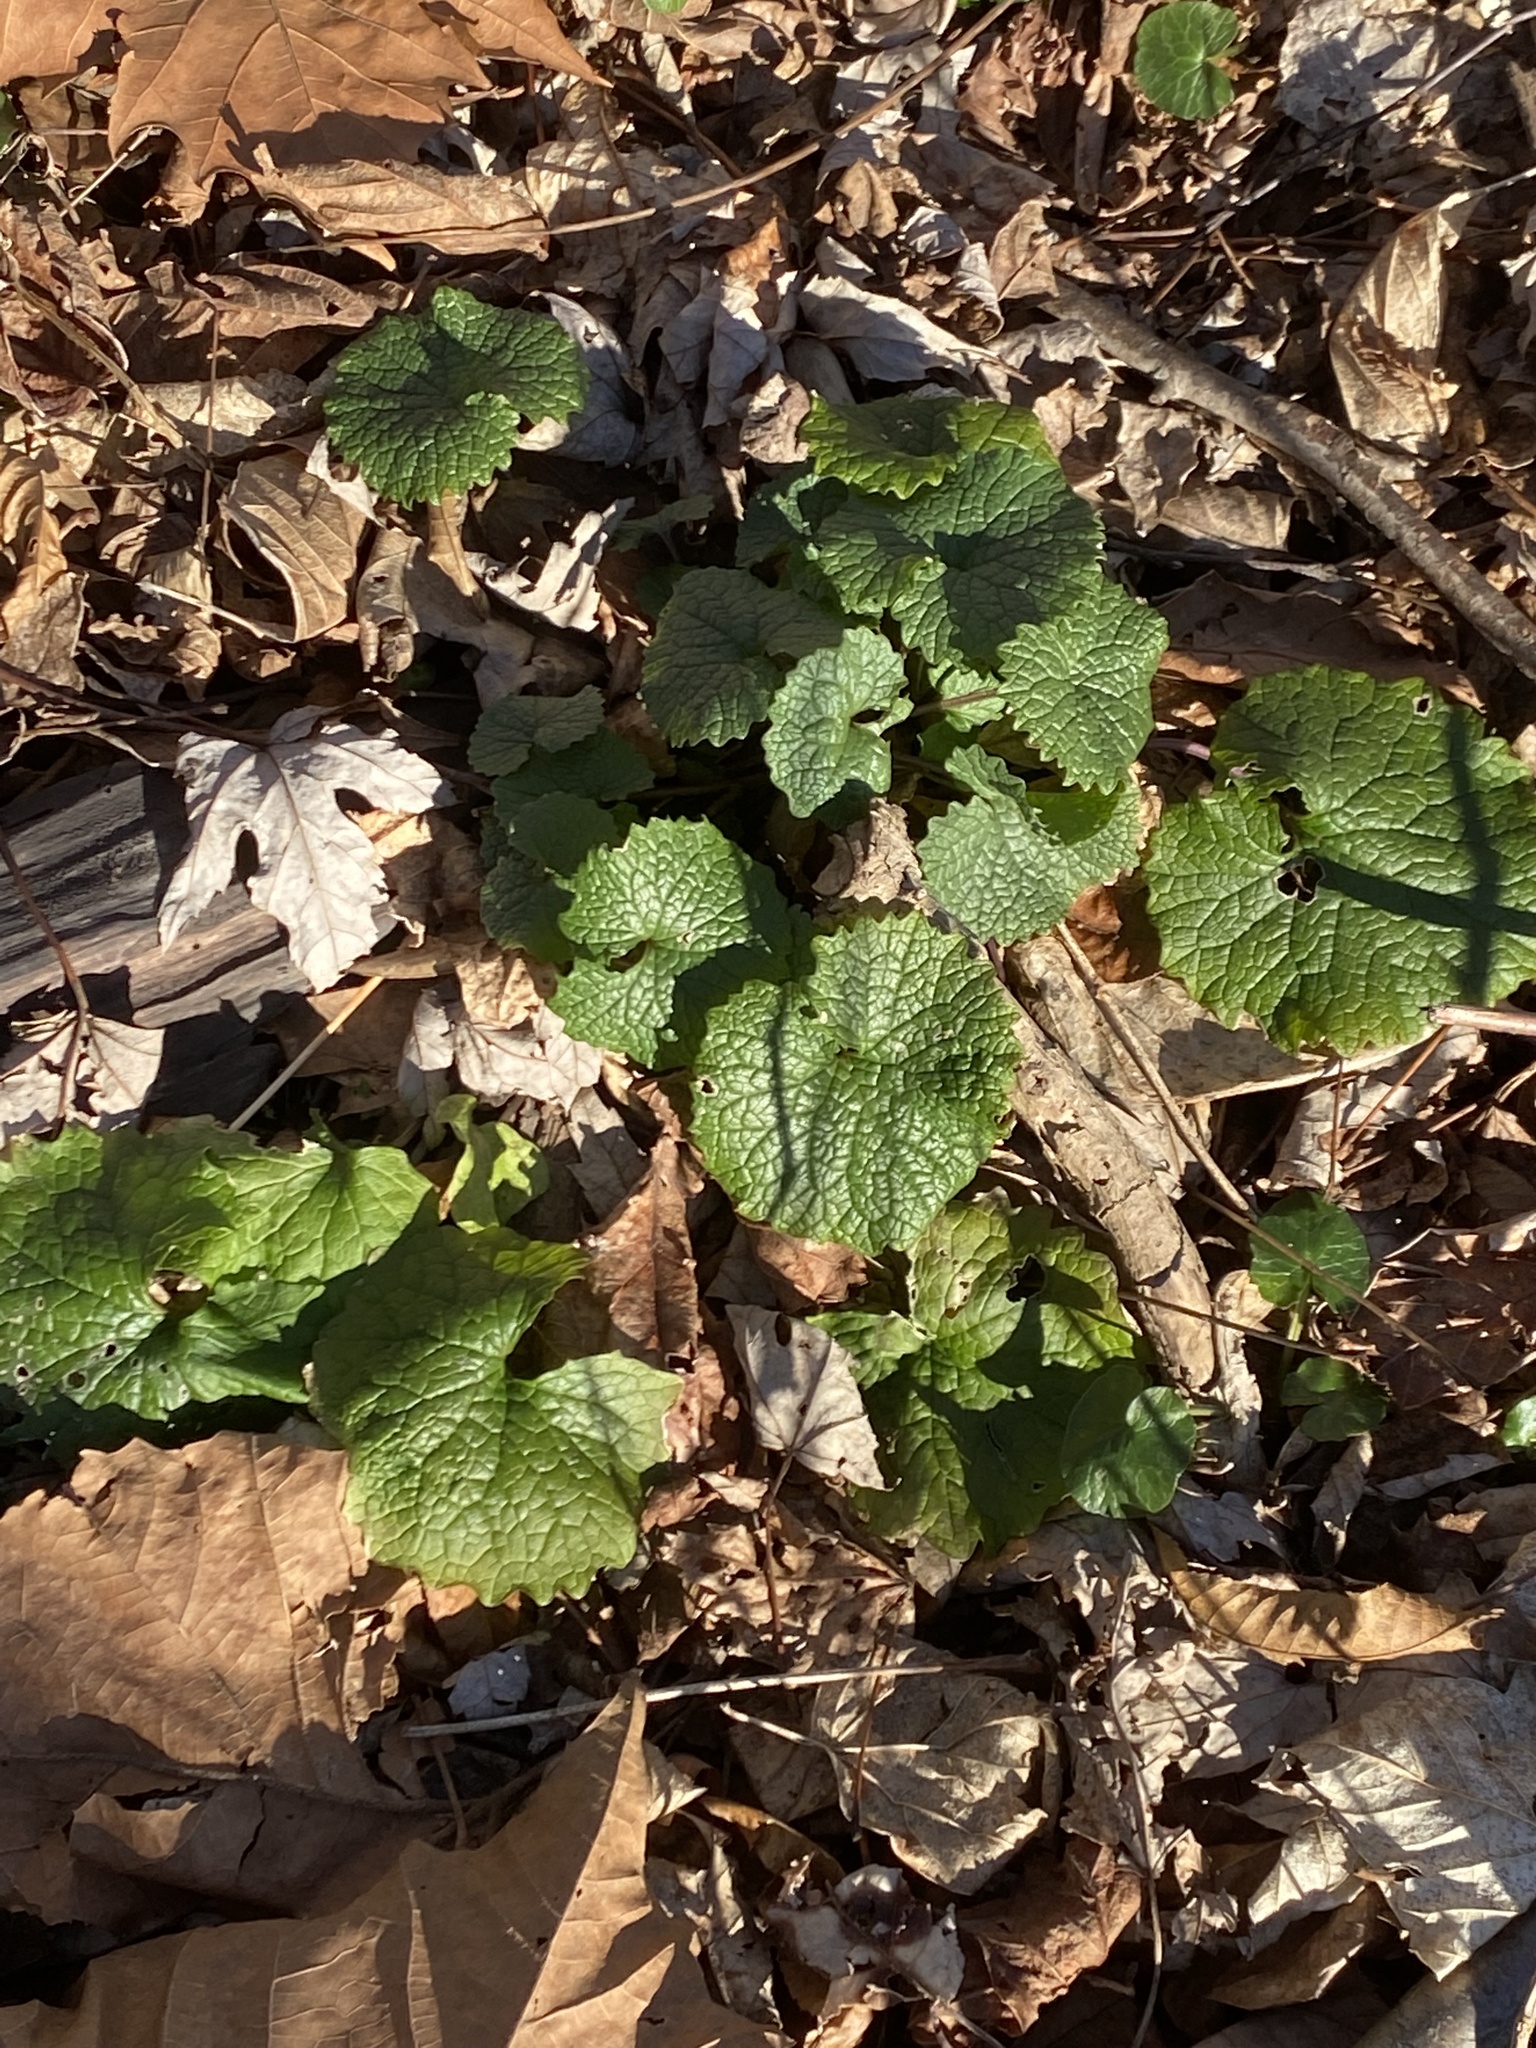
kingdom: Plantae
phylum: Tracheophyta
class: Magnoliopsida
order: Brassicales
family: Brassicaceae
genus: Alliaria
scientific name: Alliaria petiolata
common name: Garlic mustard
